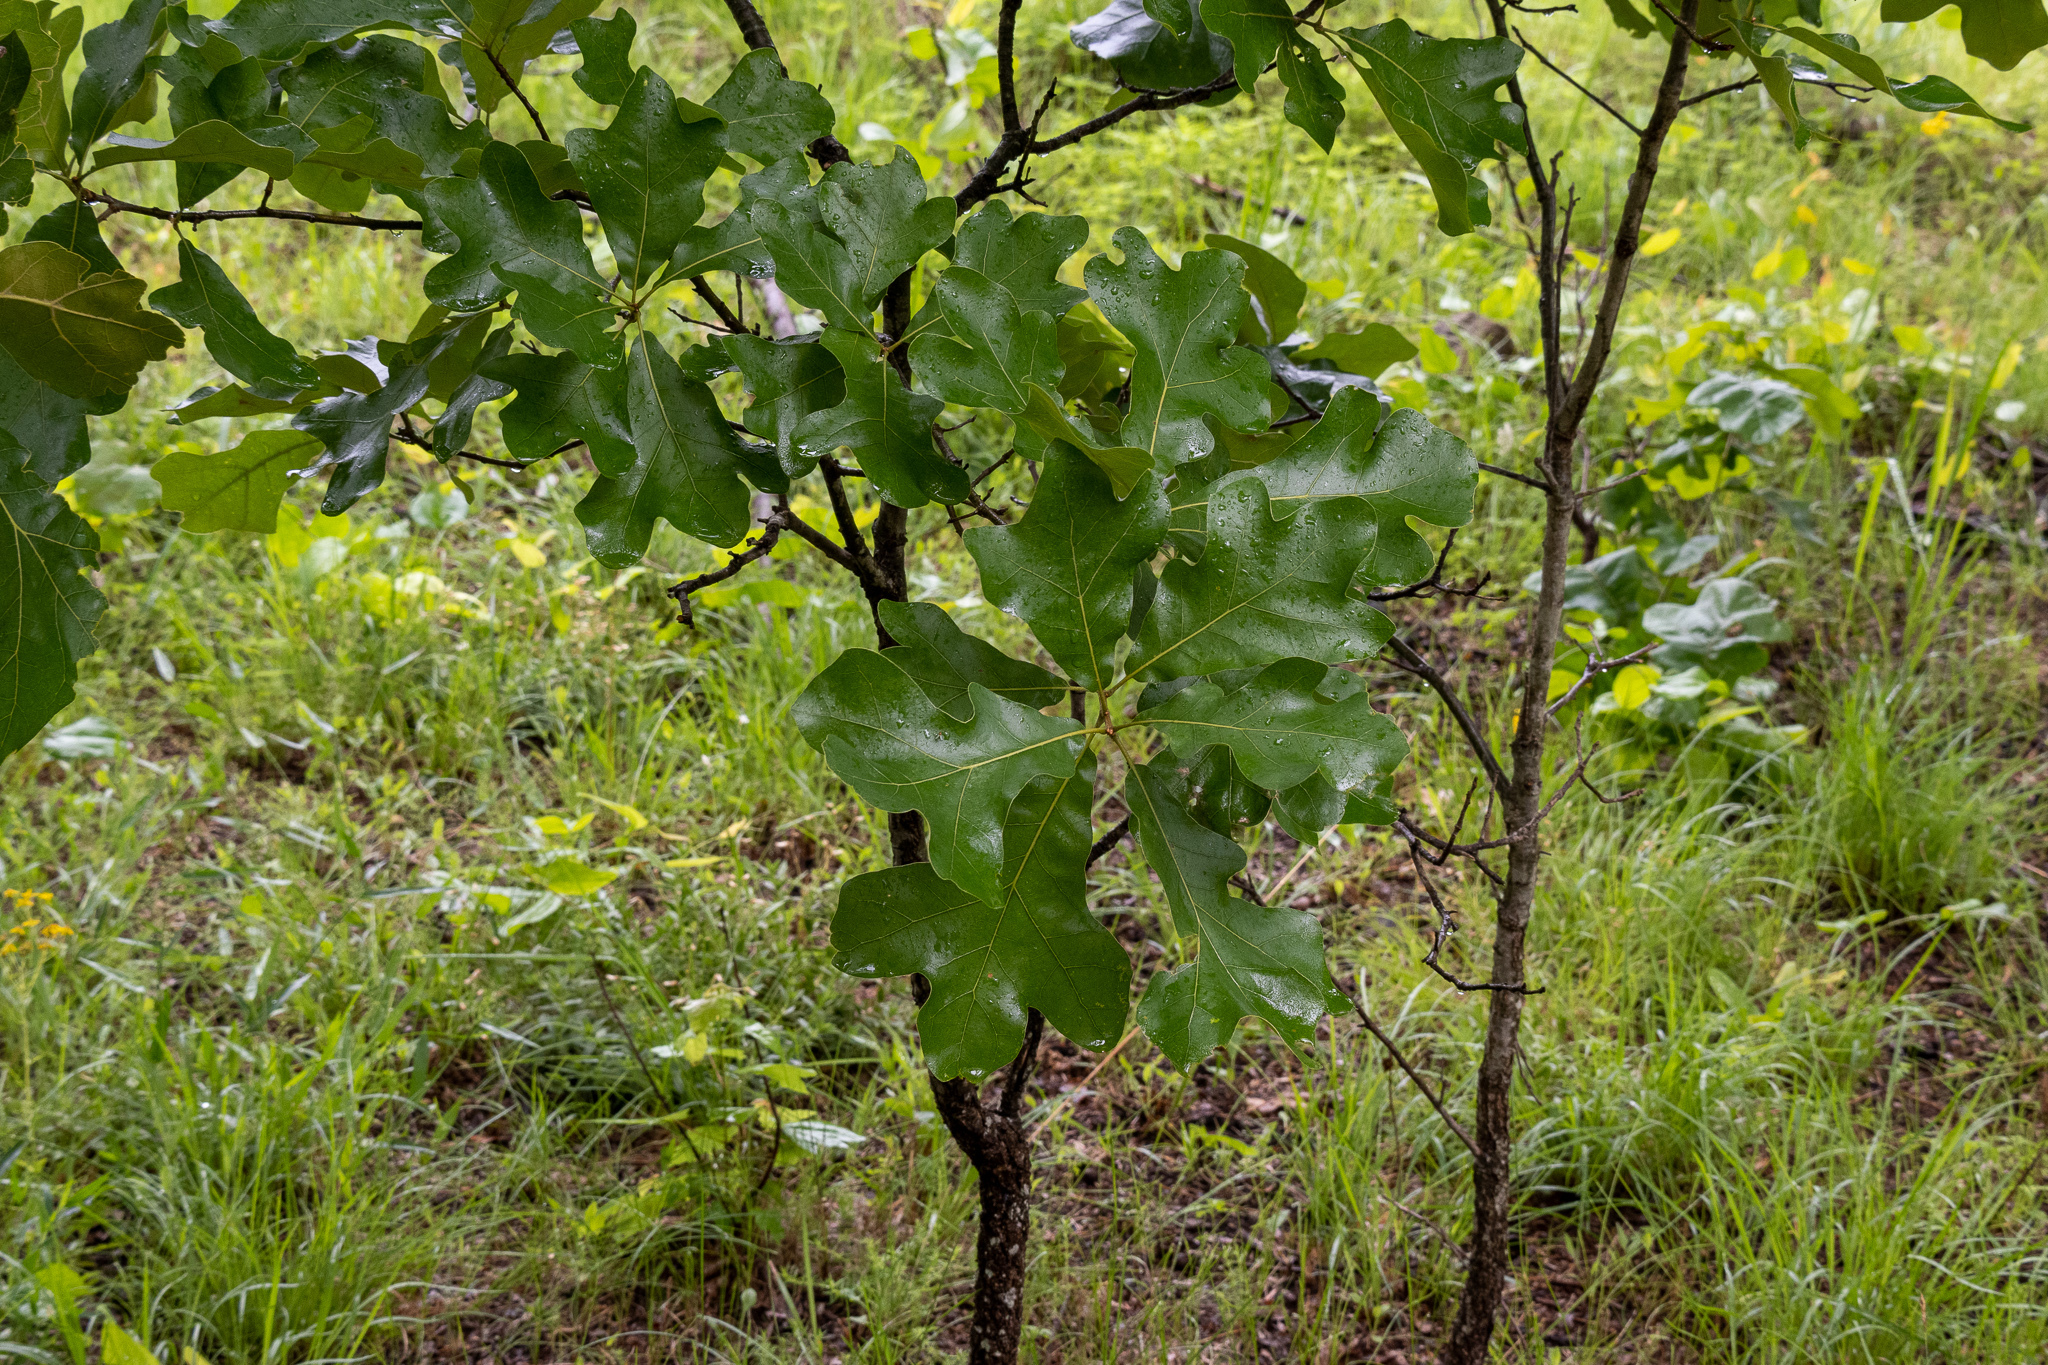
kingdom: Plantae
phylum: Tracheophyta
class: Magnoliopsida
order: Fagales
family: Fagaceae
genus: Quercus
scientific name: Quercus marilandica
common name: Blackjack oak
